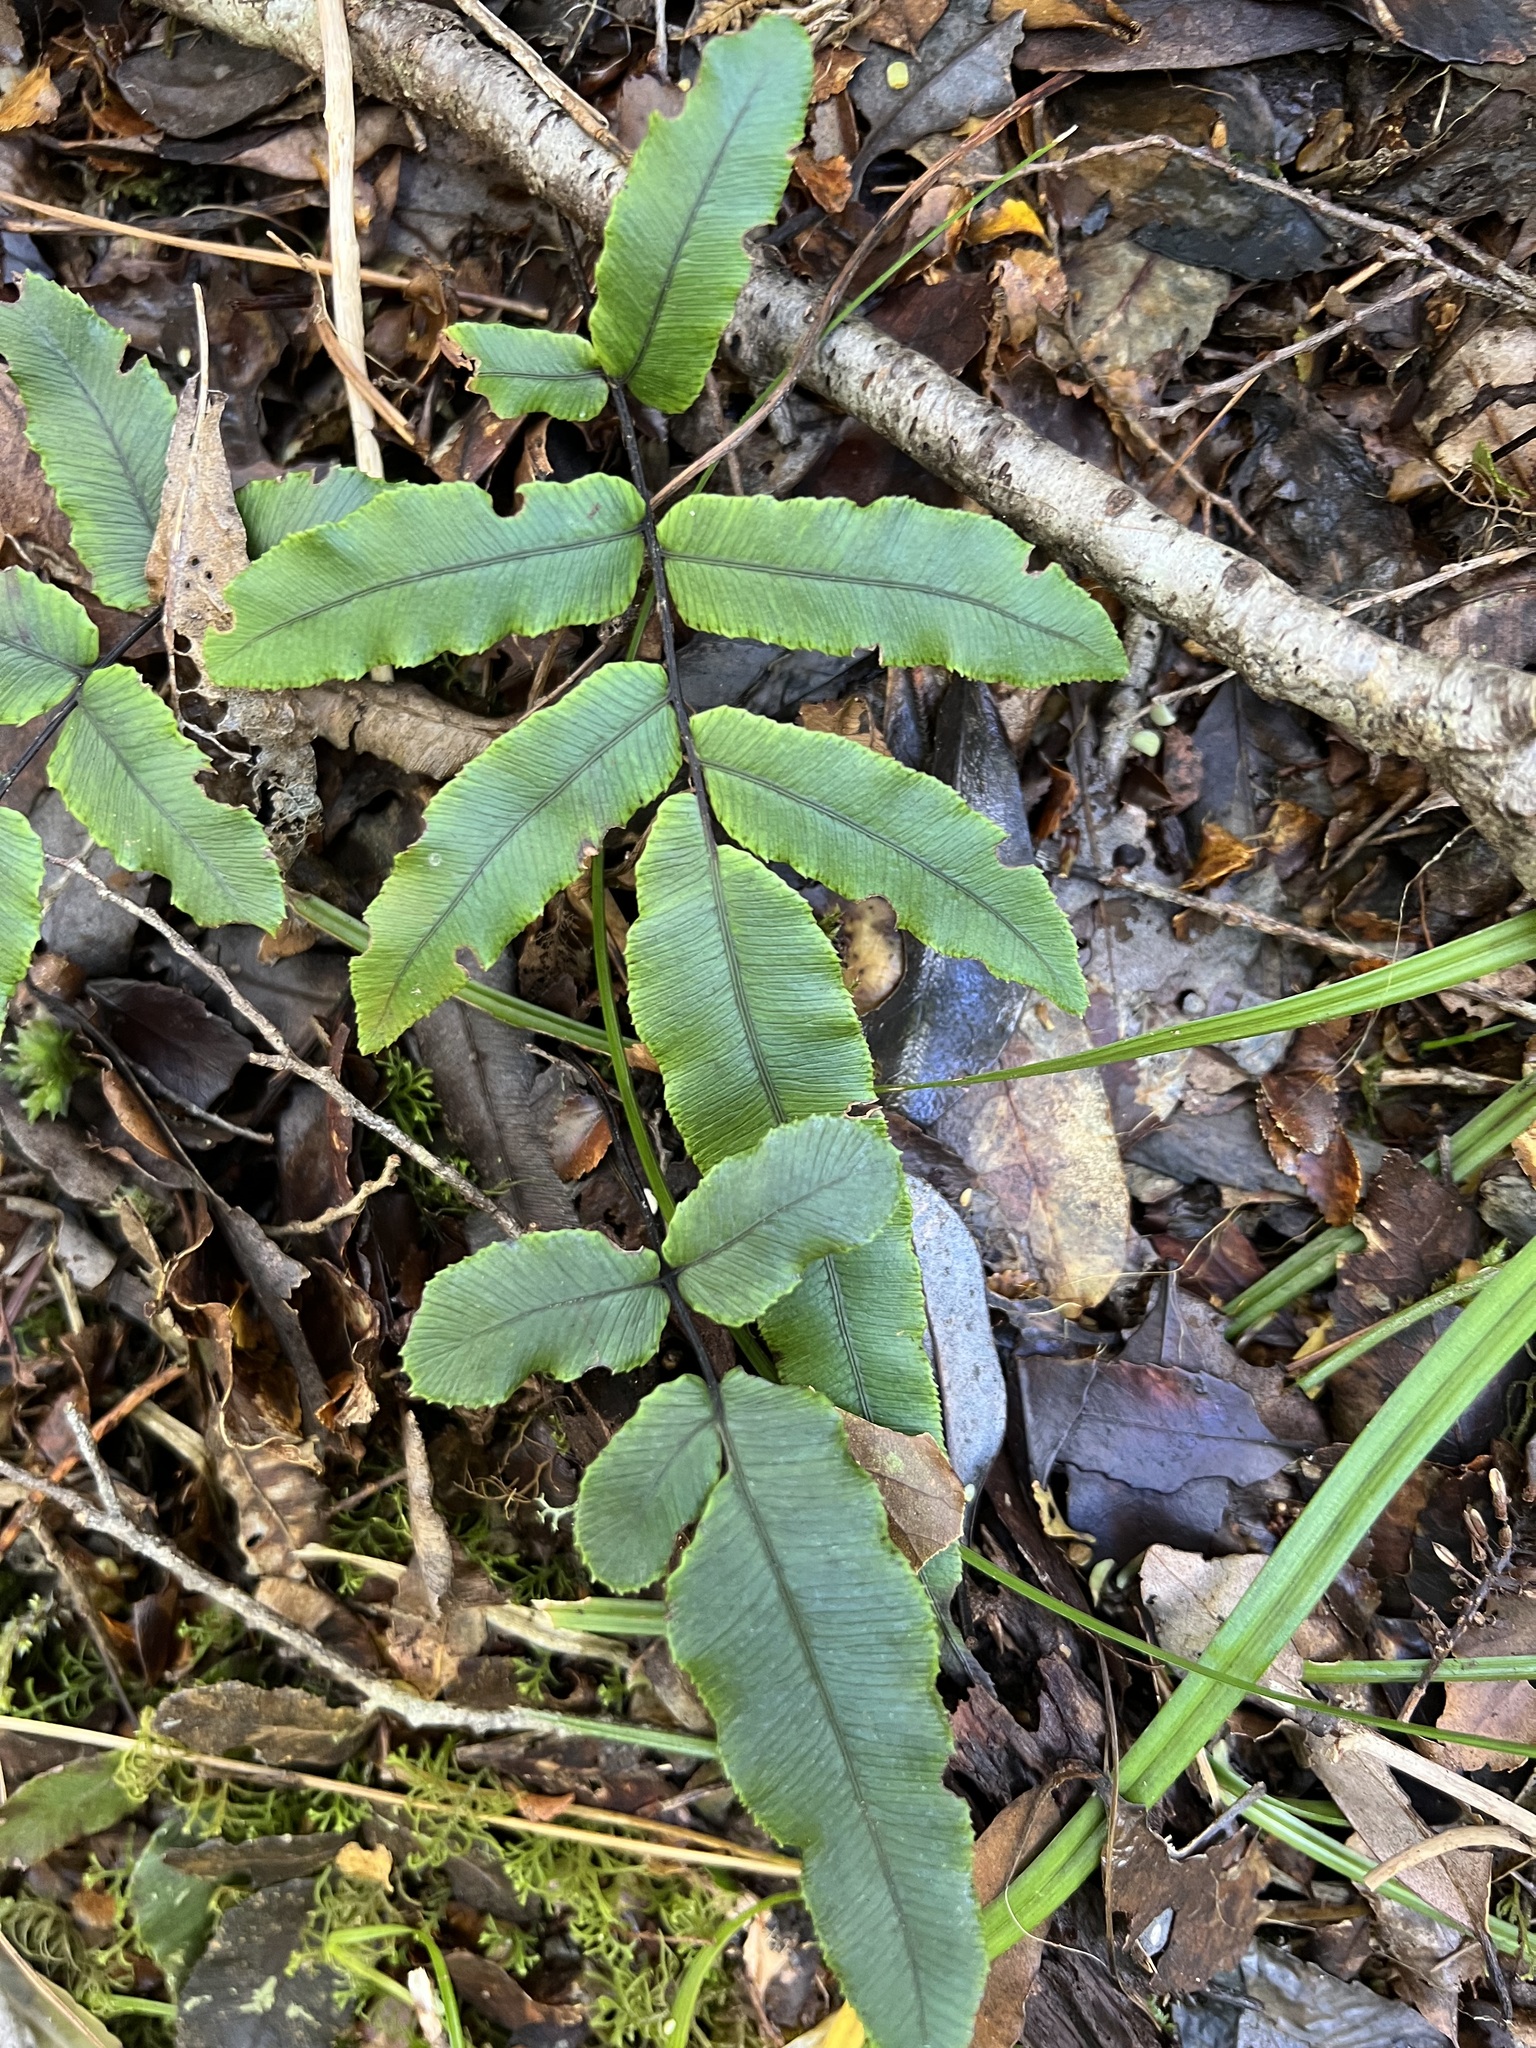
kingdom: Plantae
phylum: Tracheophyta
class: Polypodiopsida
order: Polypodiales
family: Blechnaceae
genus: Parablechnum
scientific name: Parablechnum procerum
